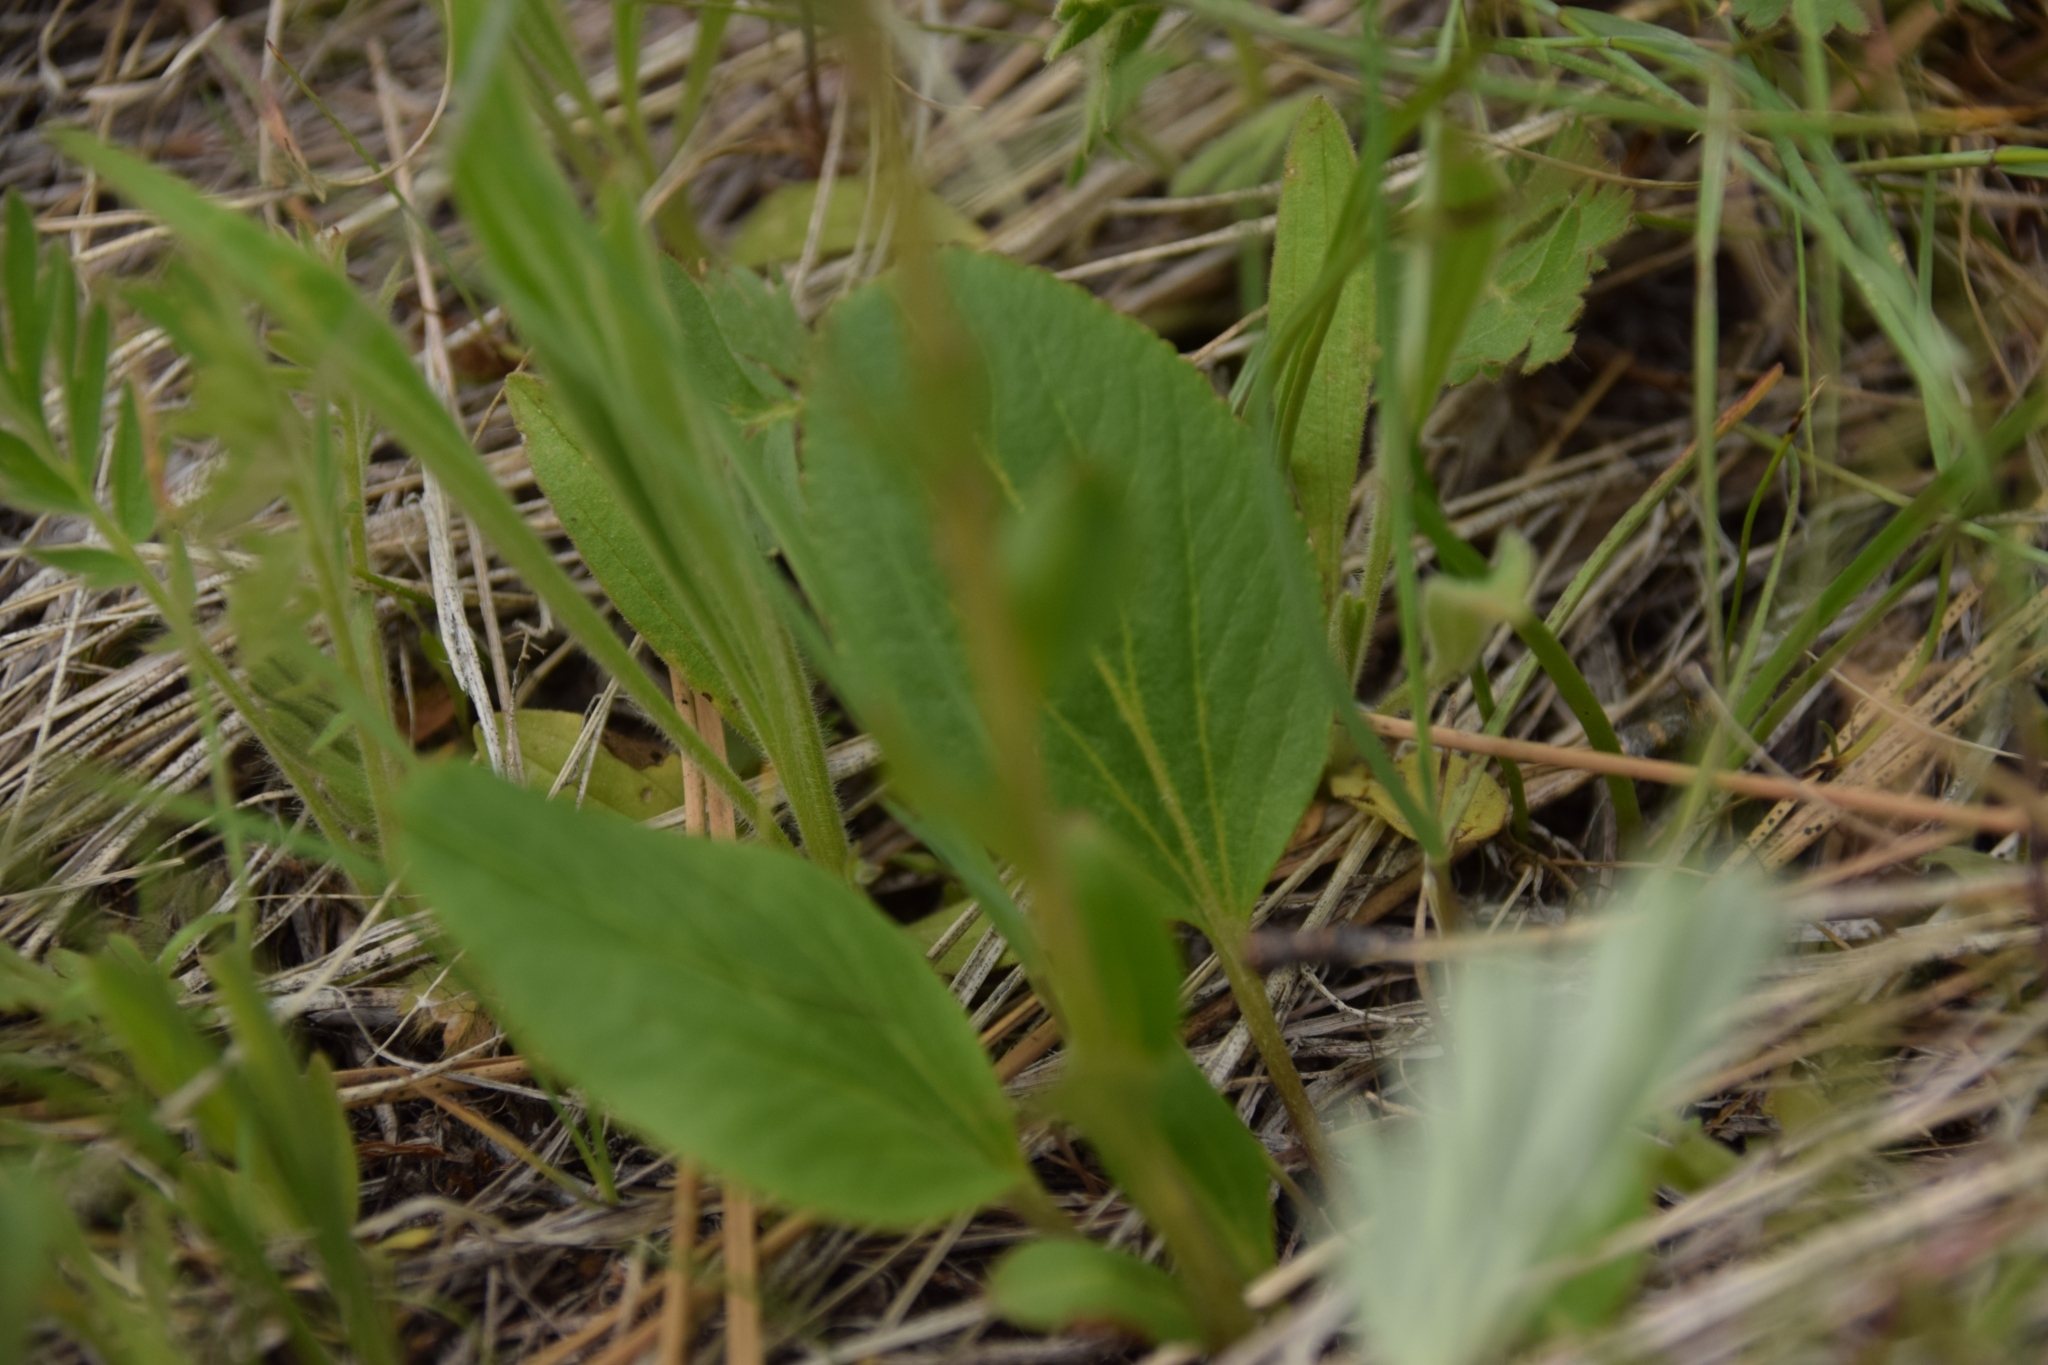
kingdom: Plantae
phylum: Tracheophyta
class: Magnoliopsida
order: Lamiales
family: Plantaginaceae
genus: Synthyris
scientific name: Synthyris rubra
